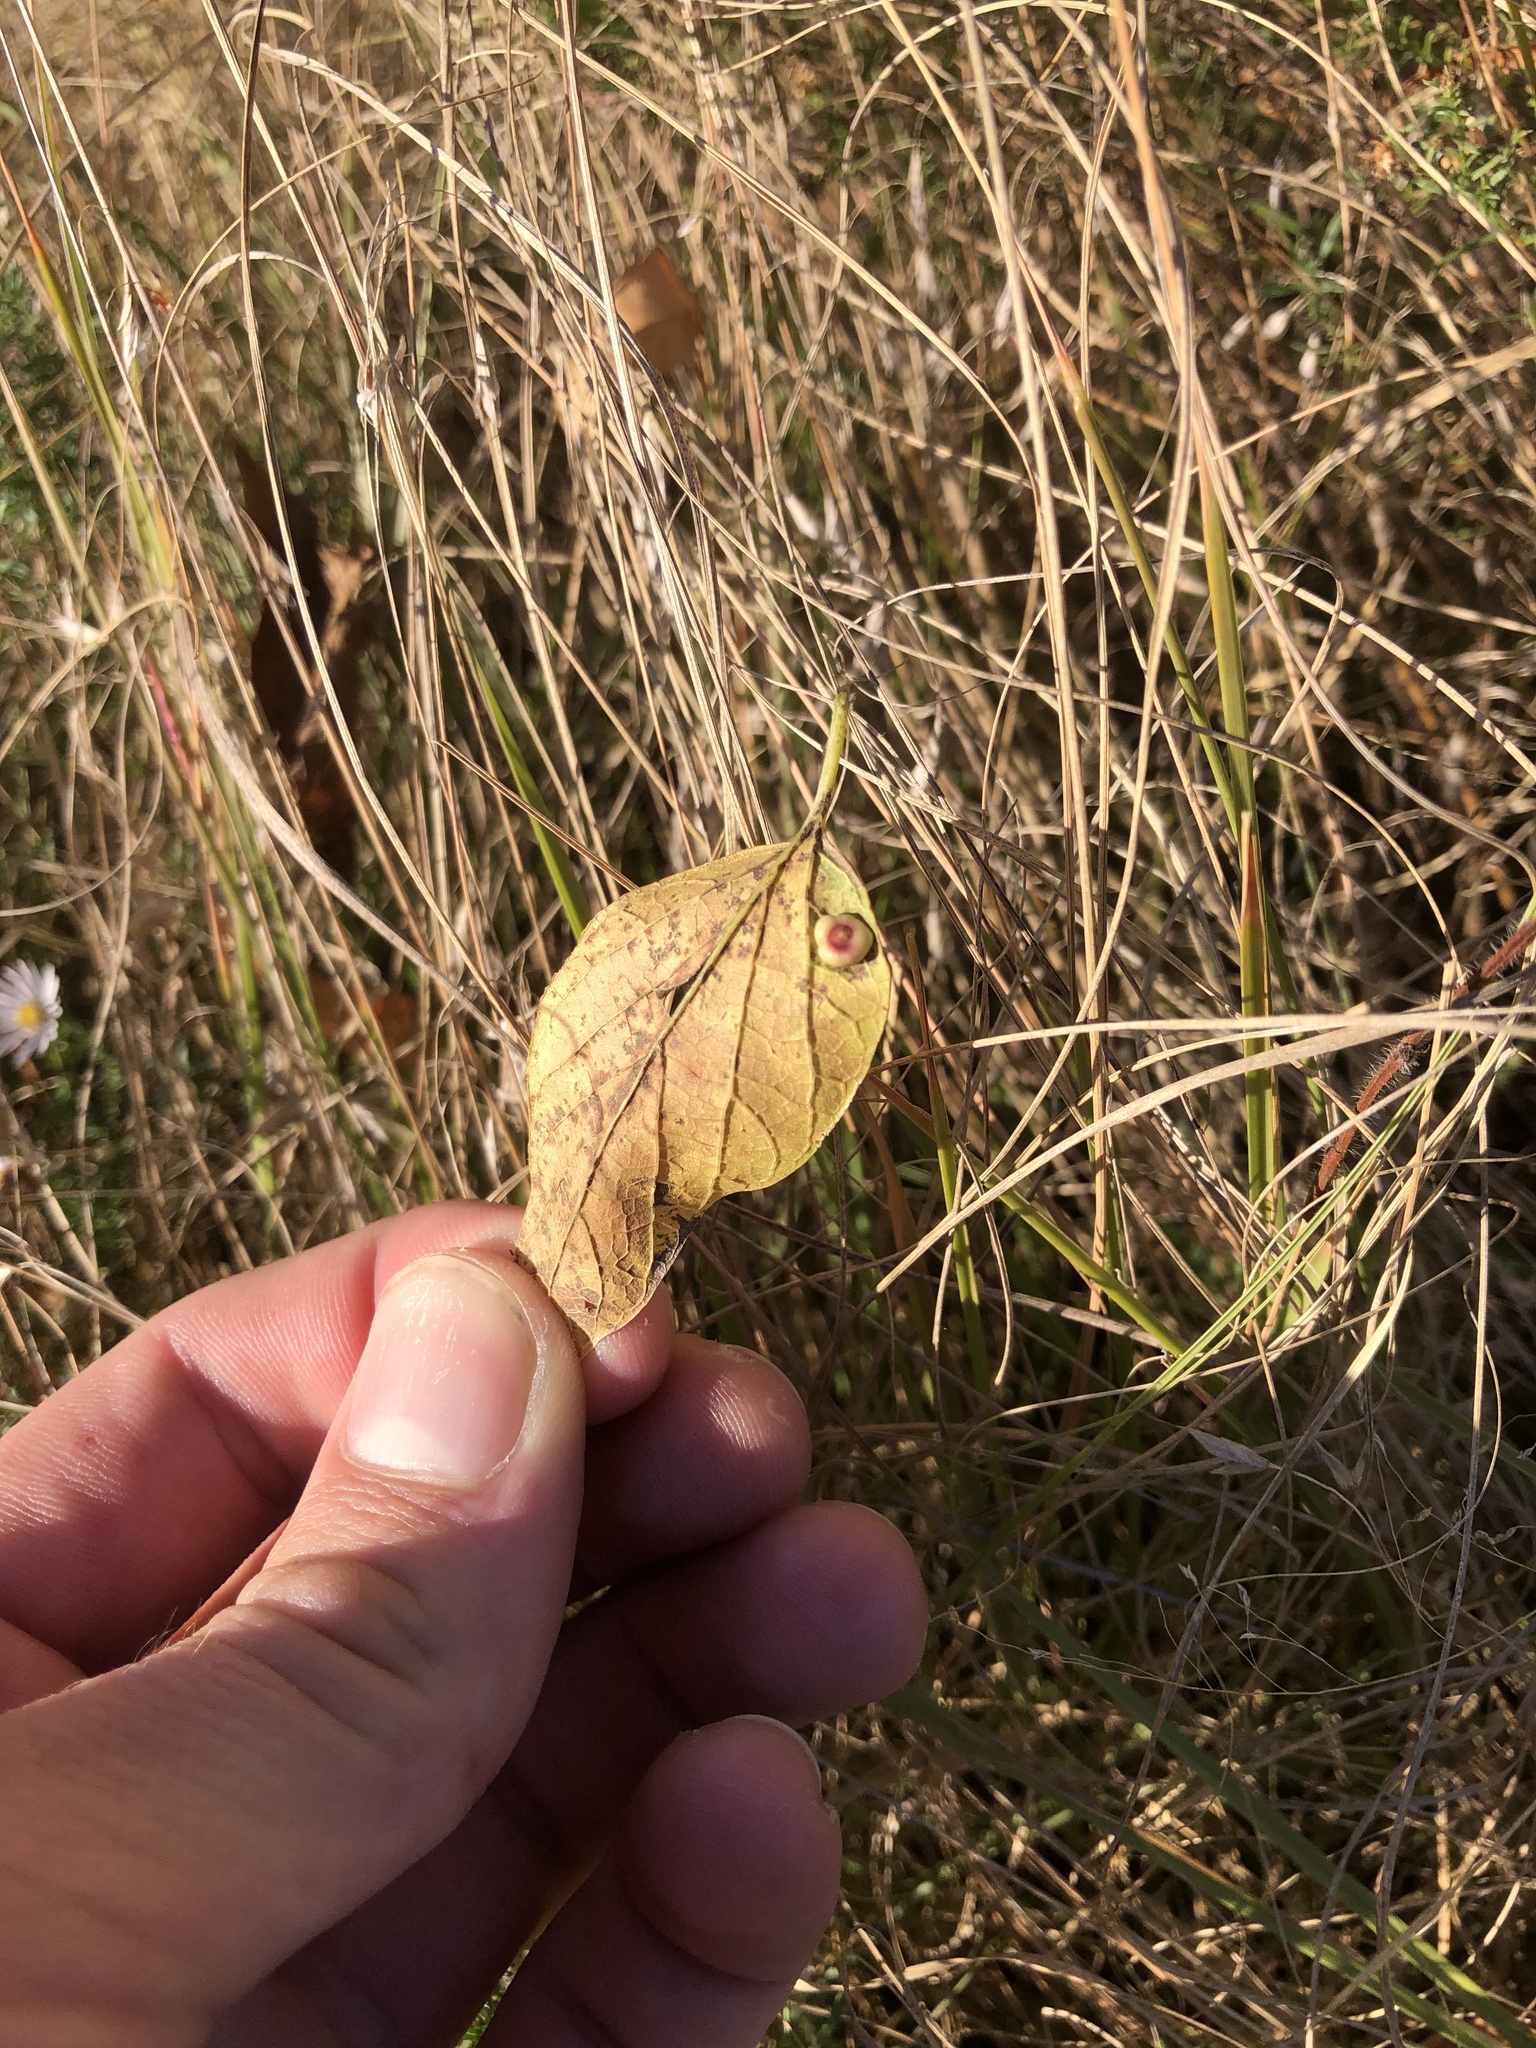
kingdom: Animalia
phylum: Arthropoda
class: Insecta
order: Hemiptera
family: Aphalaridae
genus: Pachypsylla
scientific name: Pachypsylla celtidismamma
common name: Hackberry nipplegall psyllid
